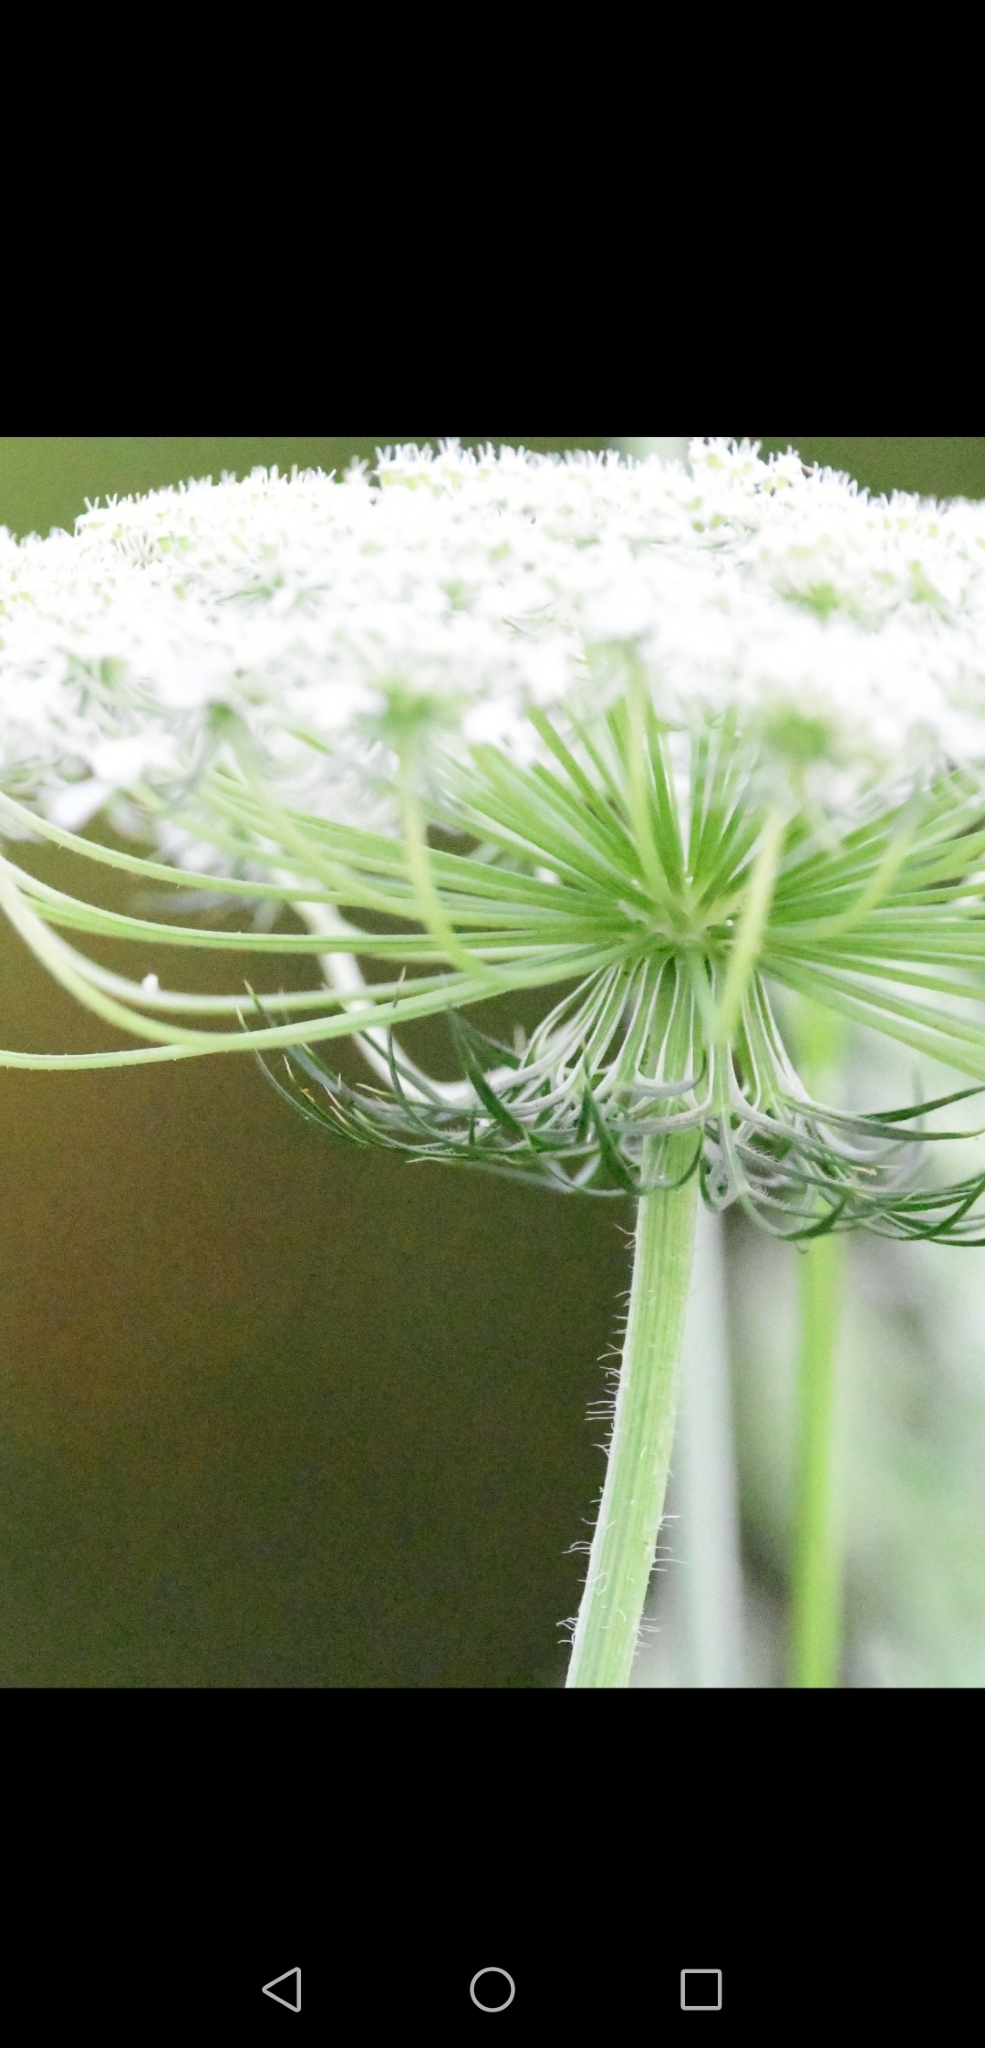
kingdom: Plantae
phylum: Tracheophyta
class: Magnoliopsida
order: Apiales
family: Apiaceae
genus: Daucus
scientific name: Daucus carota
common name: Wild carrot
